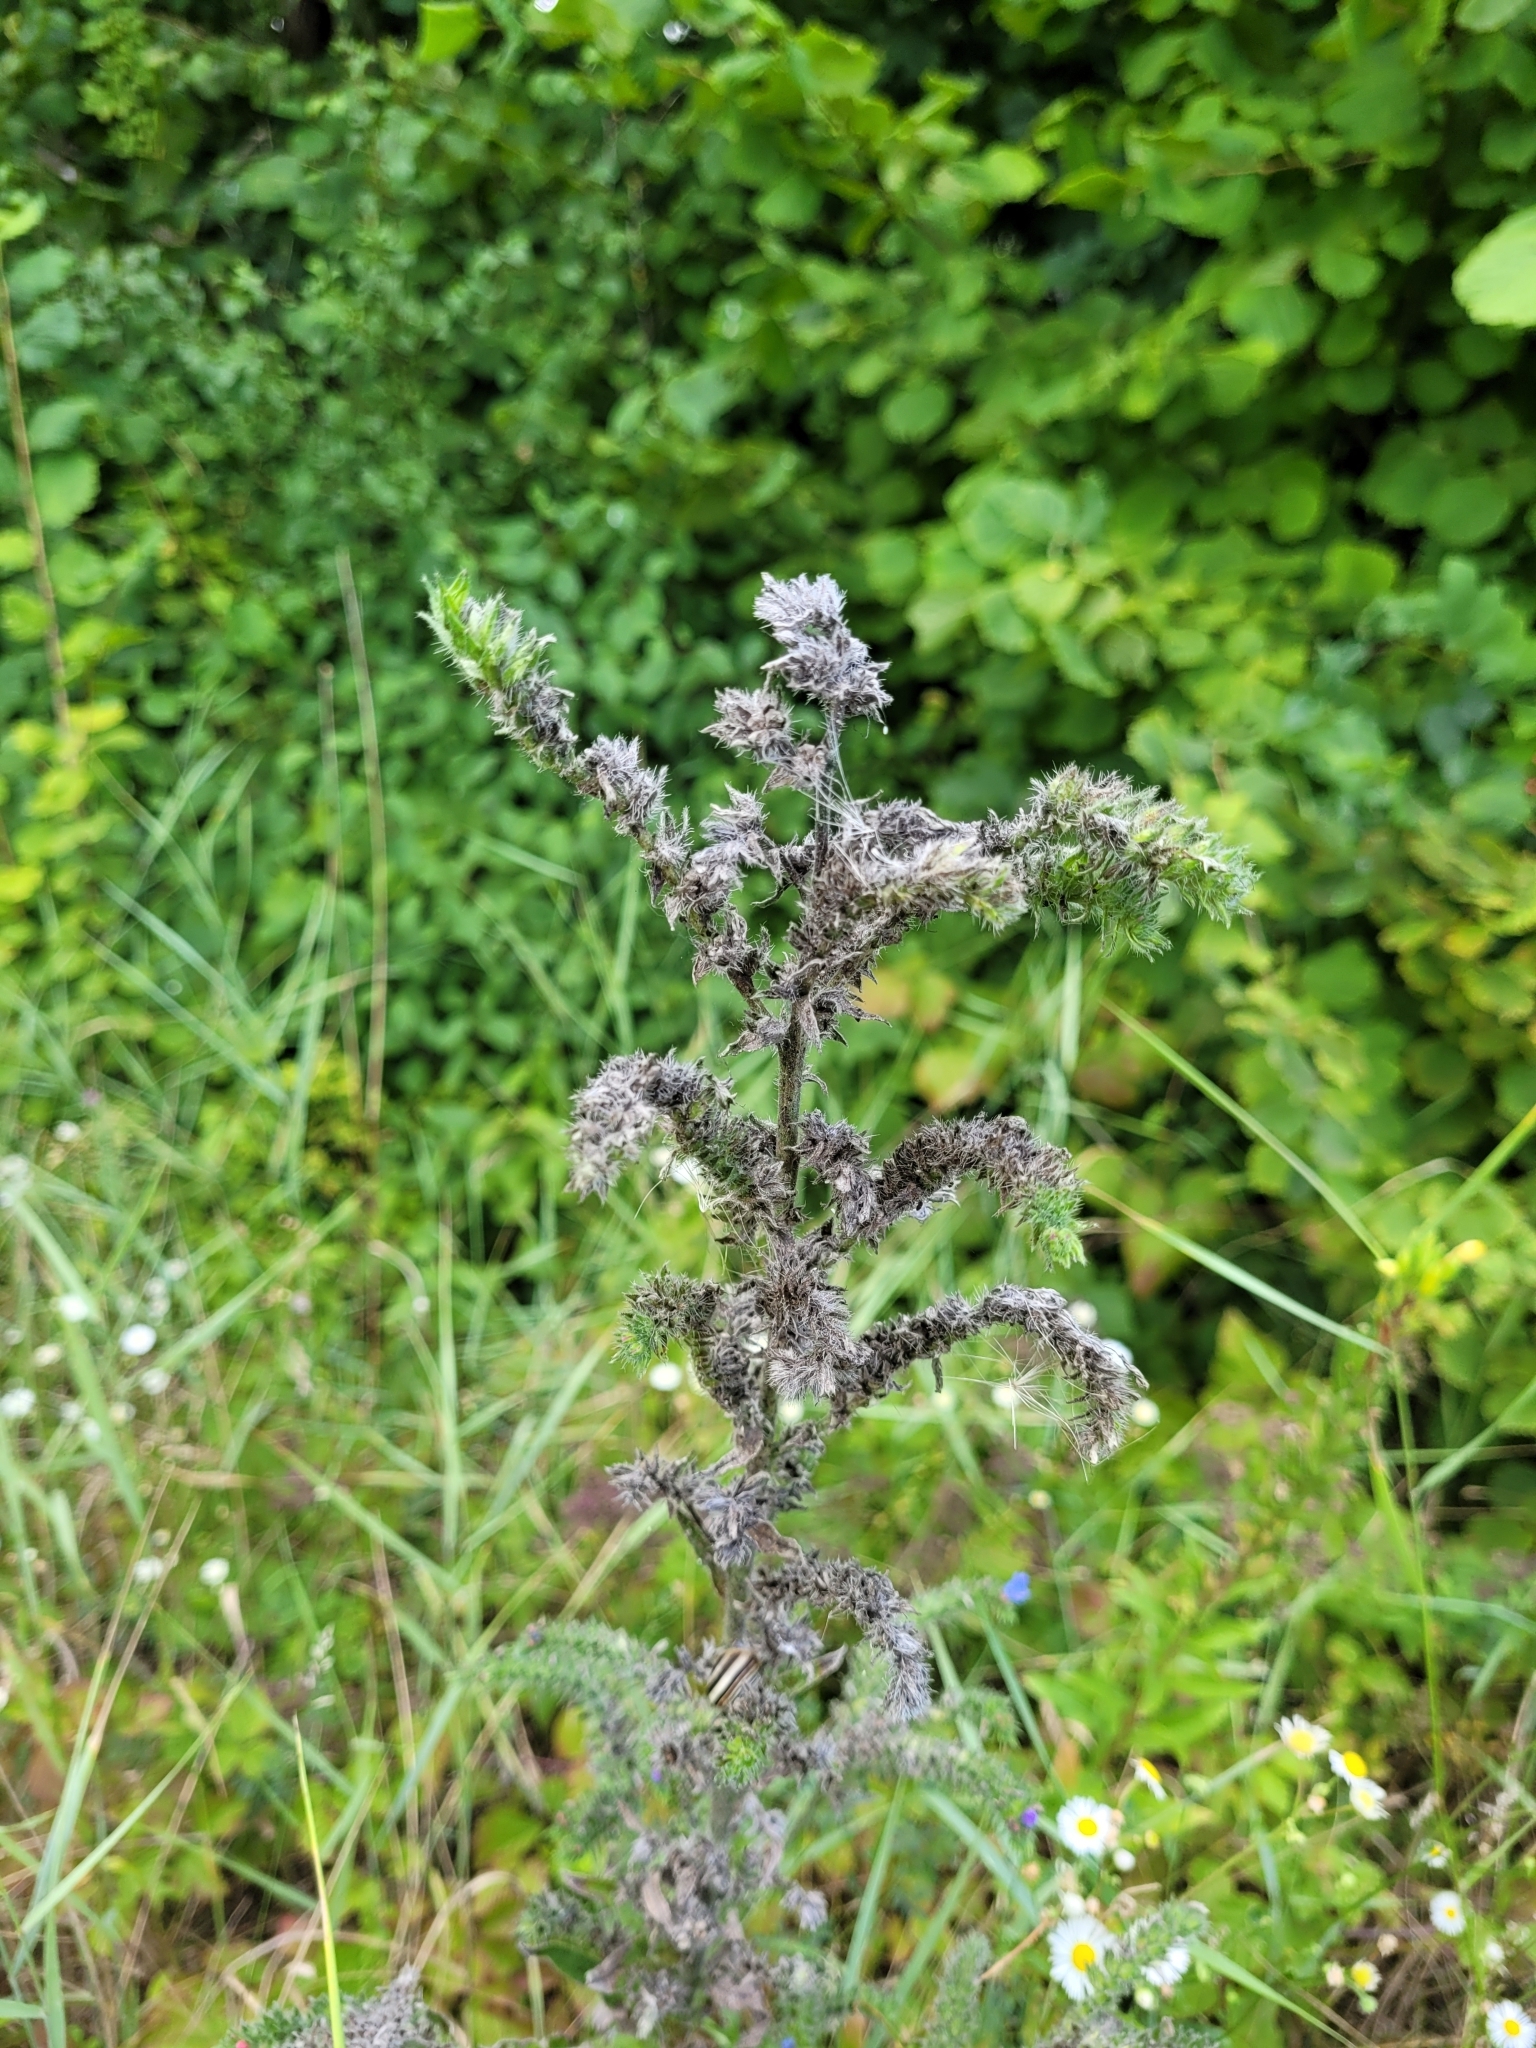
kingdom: Plantae
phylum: Tracheophyta
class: Magnoliopsida
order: Boraginales
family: Boraginaceae
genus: Echium
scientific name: Echium vulgare
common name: Common viper's bugloss
